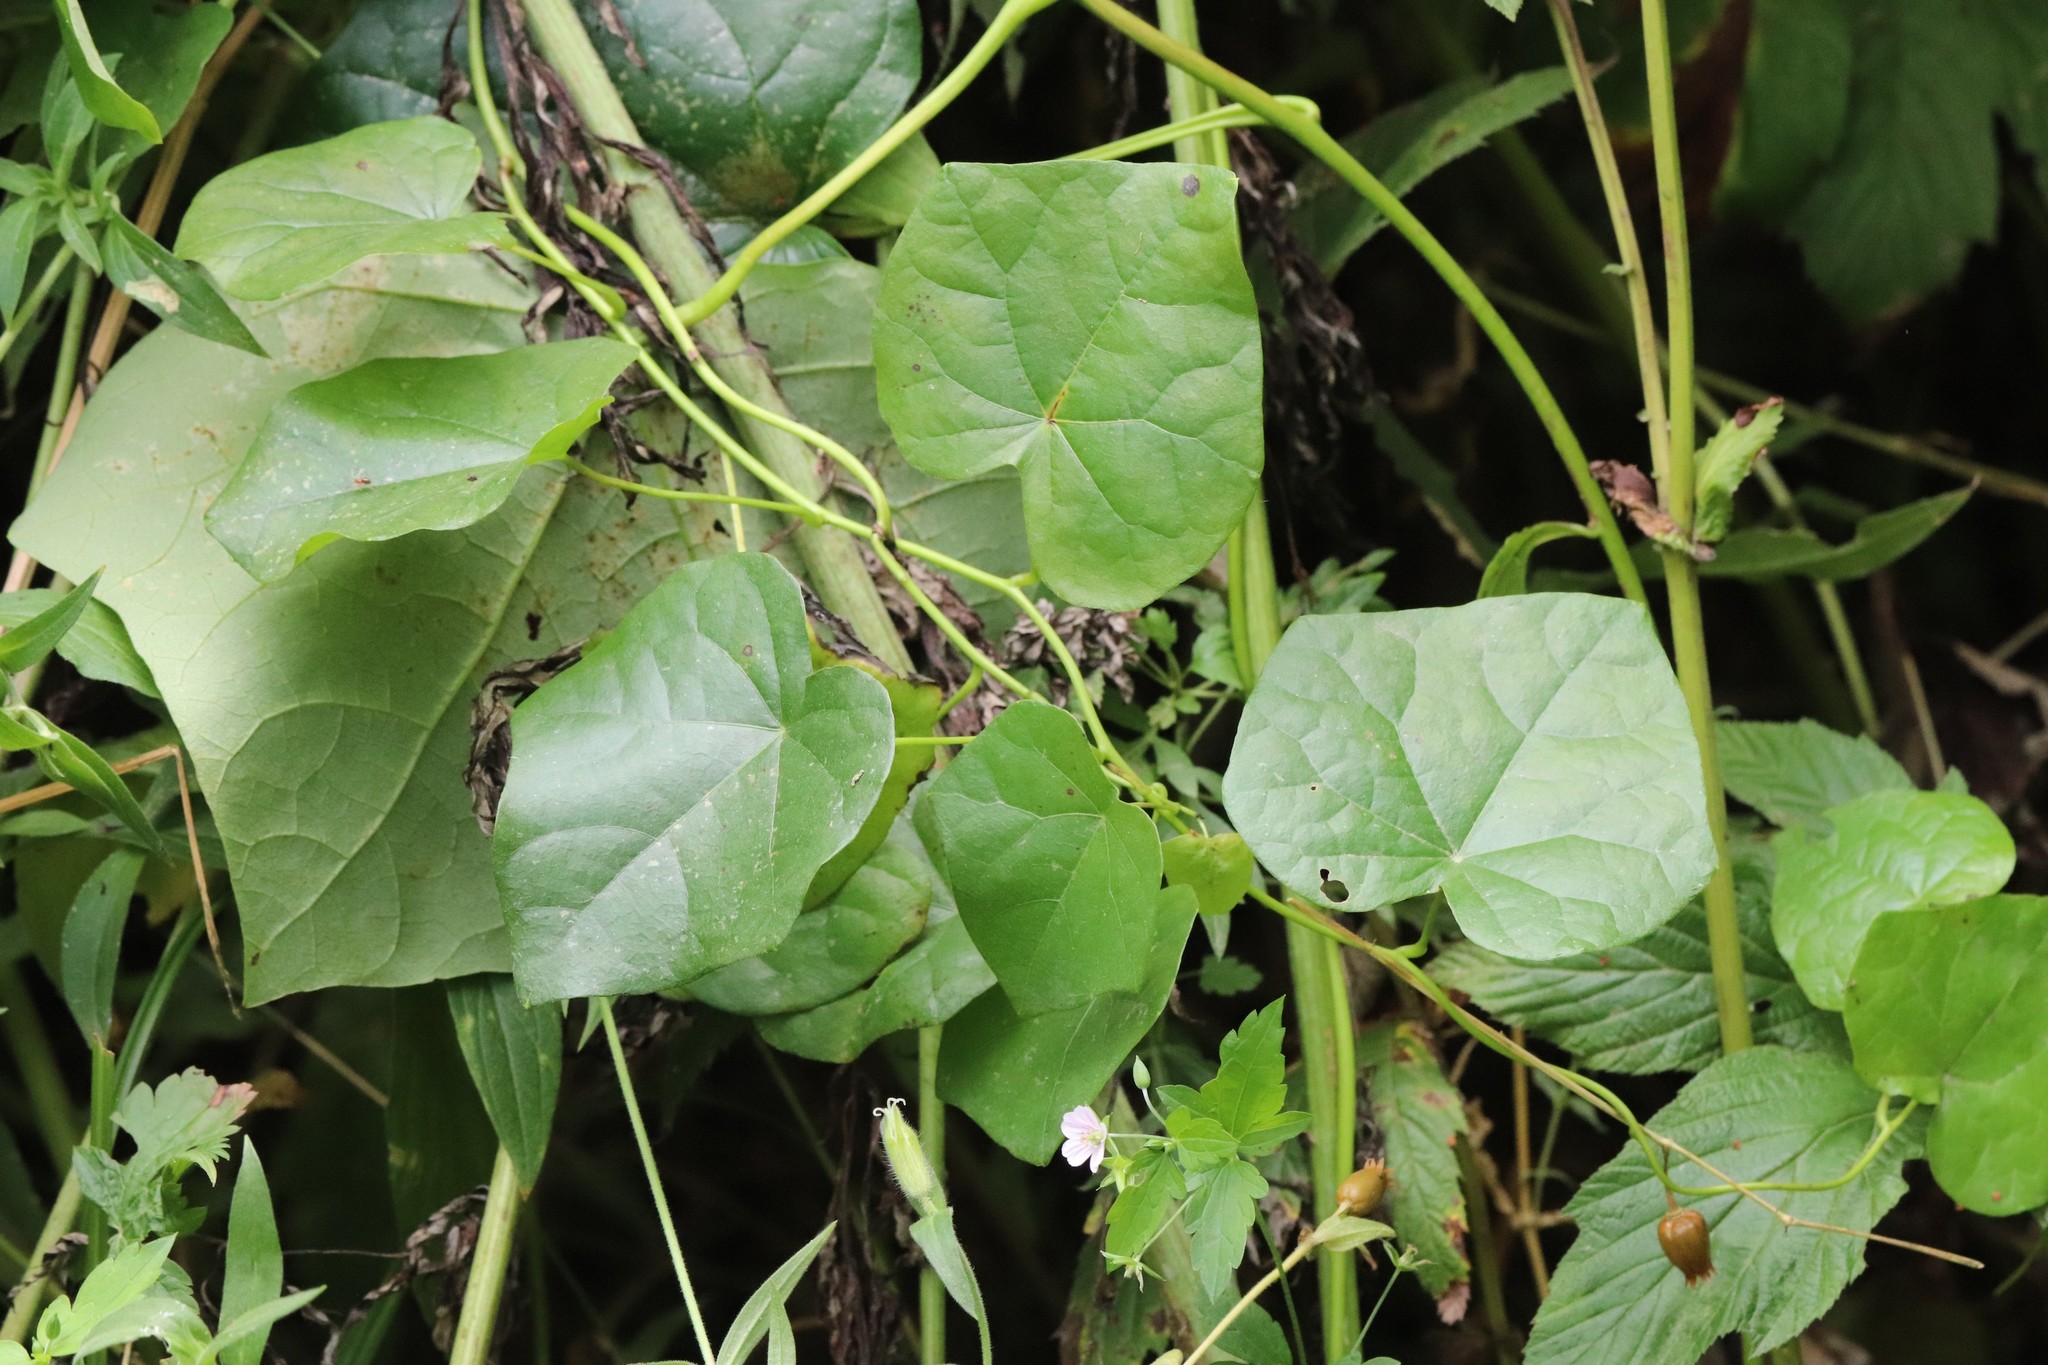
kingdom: Plantae
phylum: Tracheophyta
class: Magnoliopsida
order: Ranunculales
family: Menispermaceae
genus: Menispermum
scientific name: Menispermum dauricum
